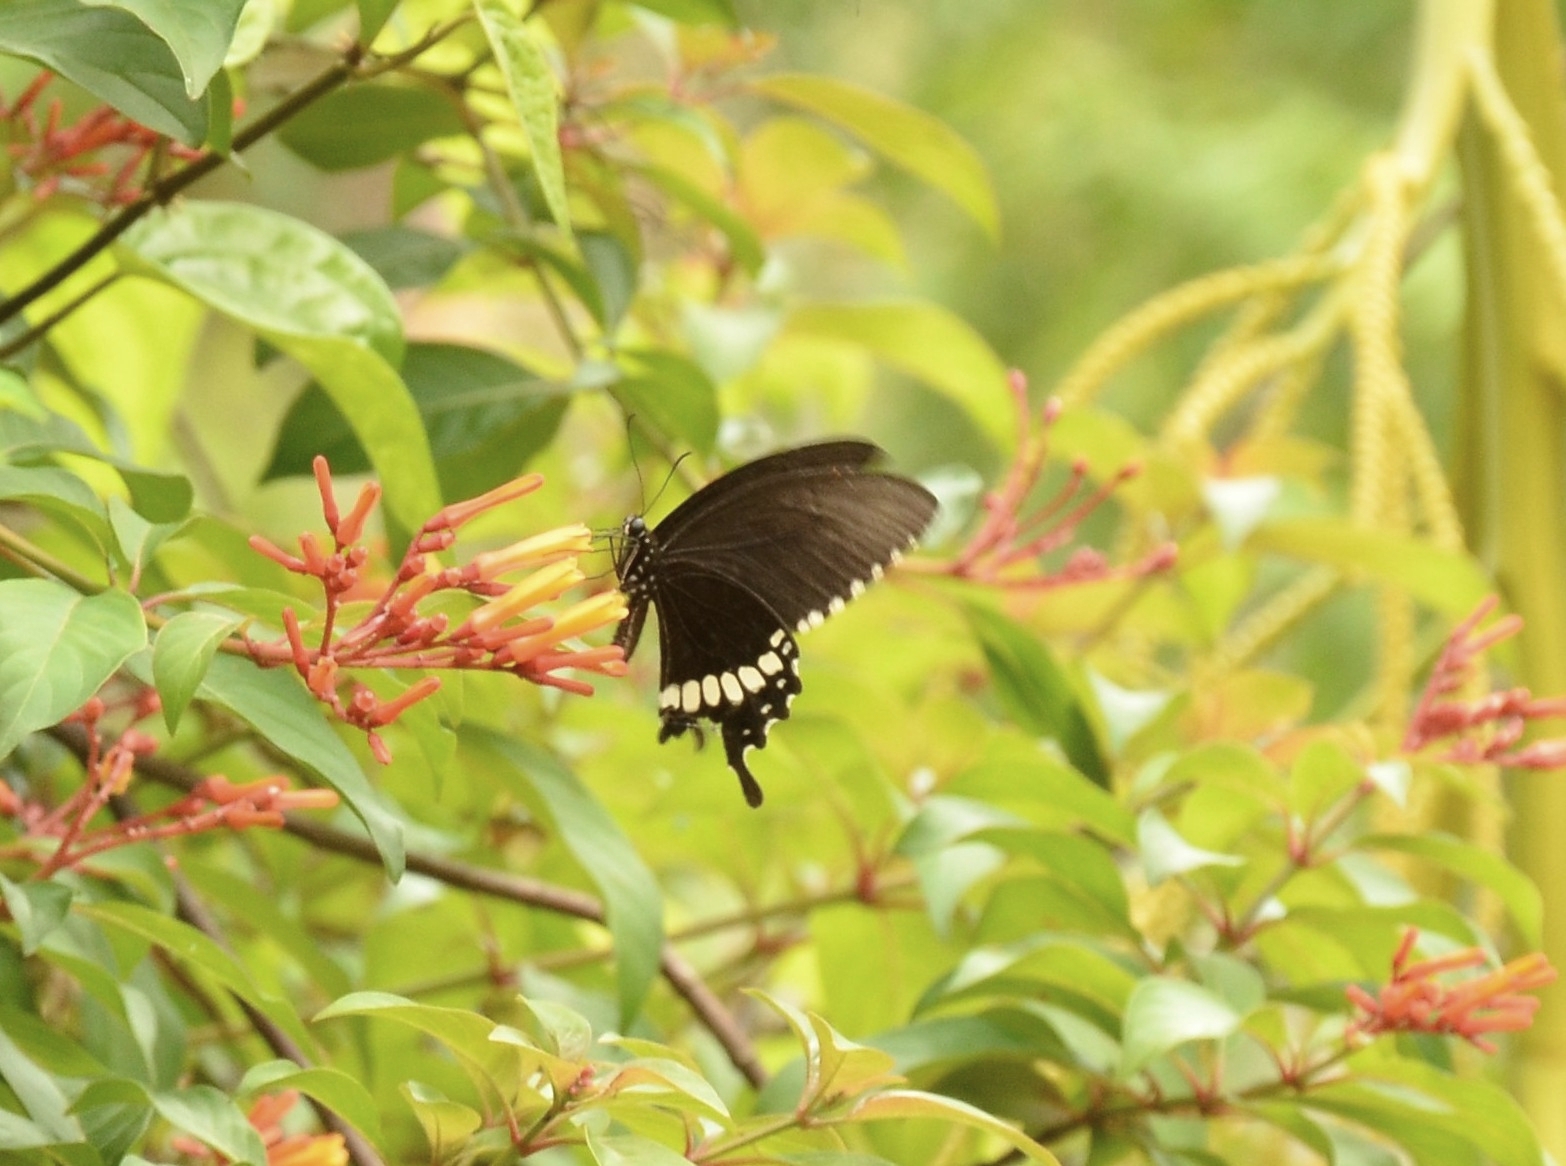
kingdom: Animalia
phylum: Arthropoda
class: Insecta
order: Lepidoptera
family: Papilionidae
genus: Papilio
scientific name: Papilio polytes
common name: Common mormon
